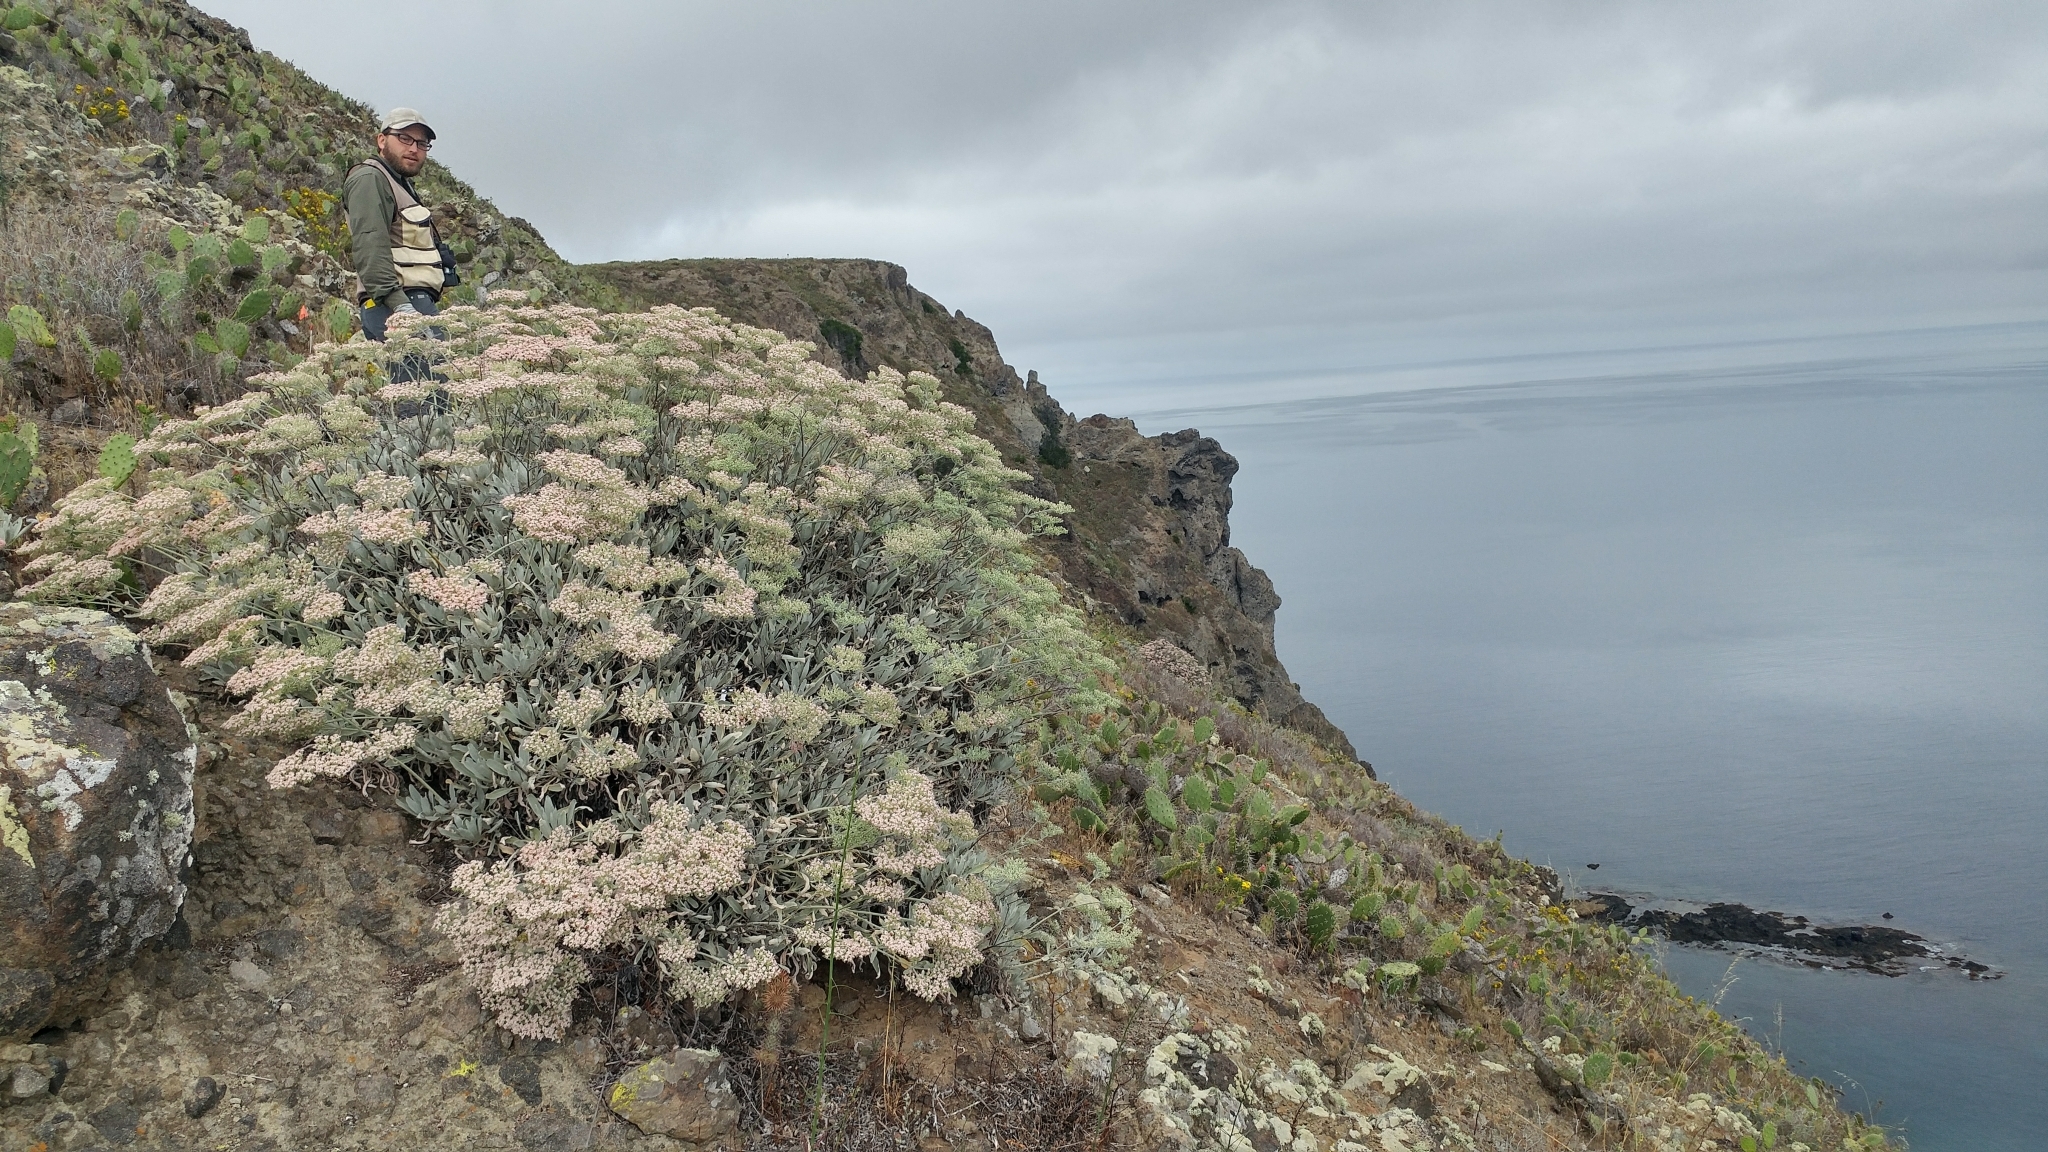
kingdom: Plantae
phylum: Tracheophyta
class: Magnoliopsida
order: Caryophyllales
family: Polygonaceae
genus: Eriogonum
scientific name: Eriogonum giganteum
